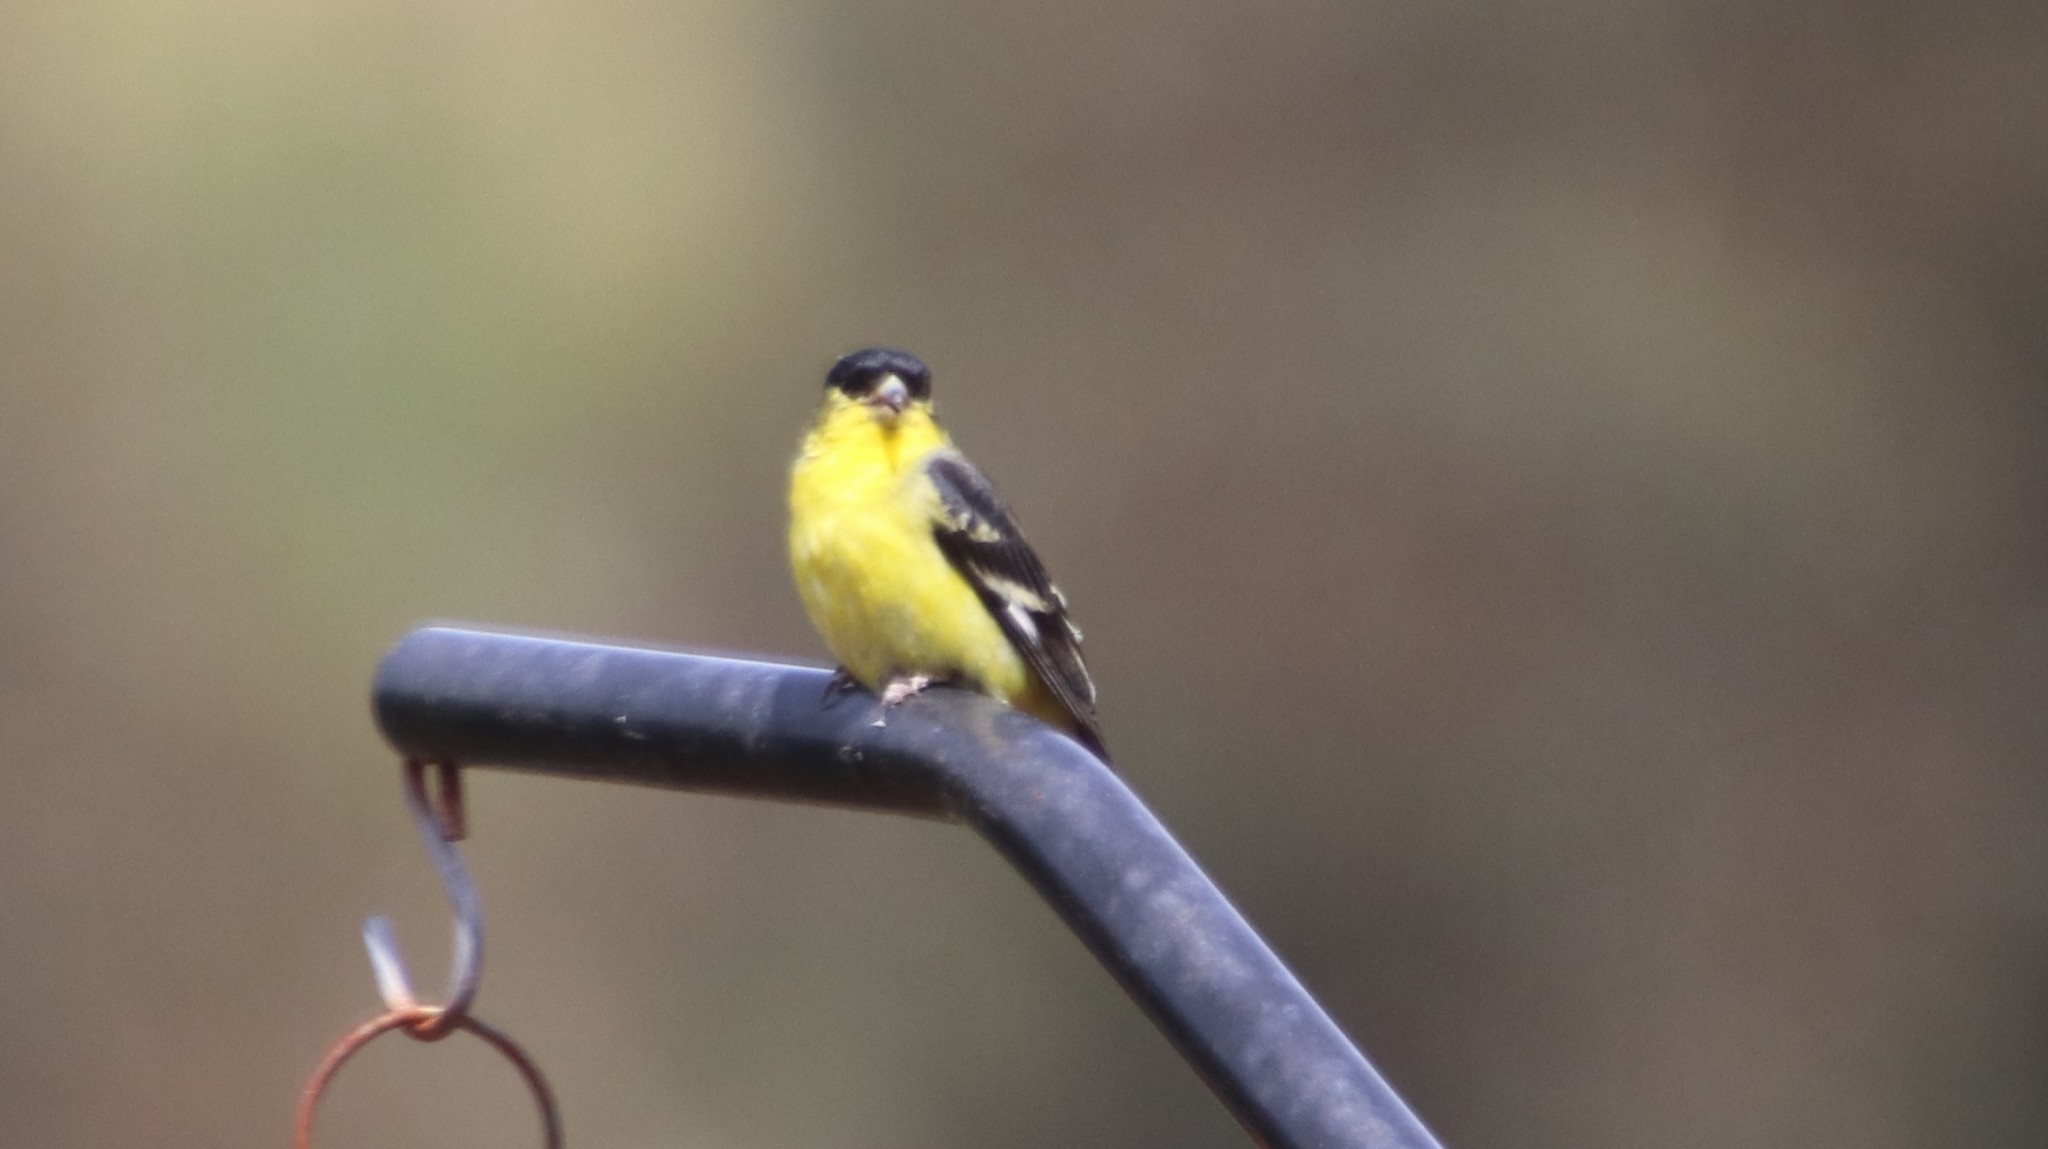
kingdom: Animalia
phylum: Chordata
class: Aves
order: Passeriformes
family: Fringillidae
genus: Spinus
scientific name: Spinus psaltria
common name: Lesser goldfinch
